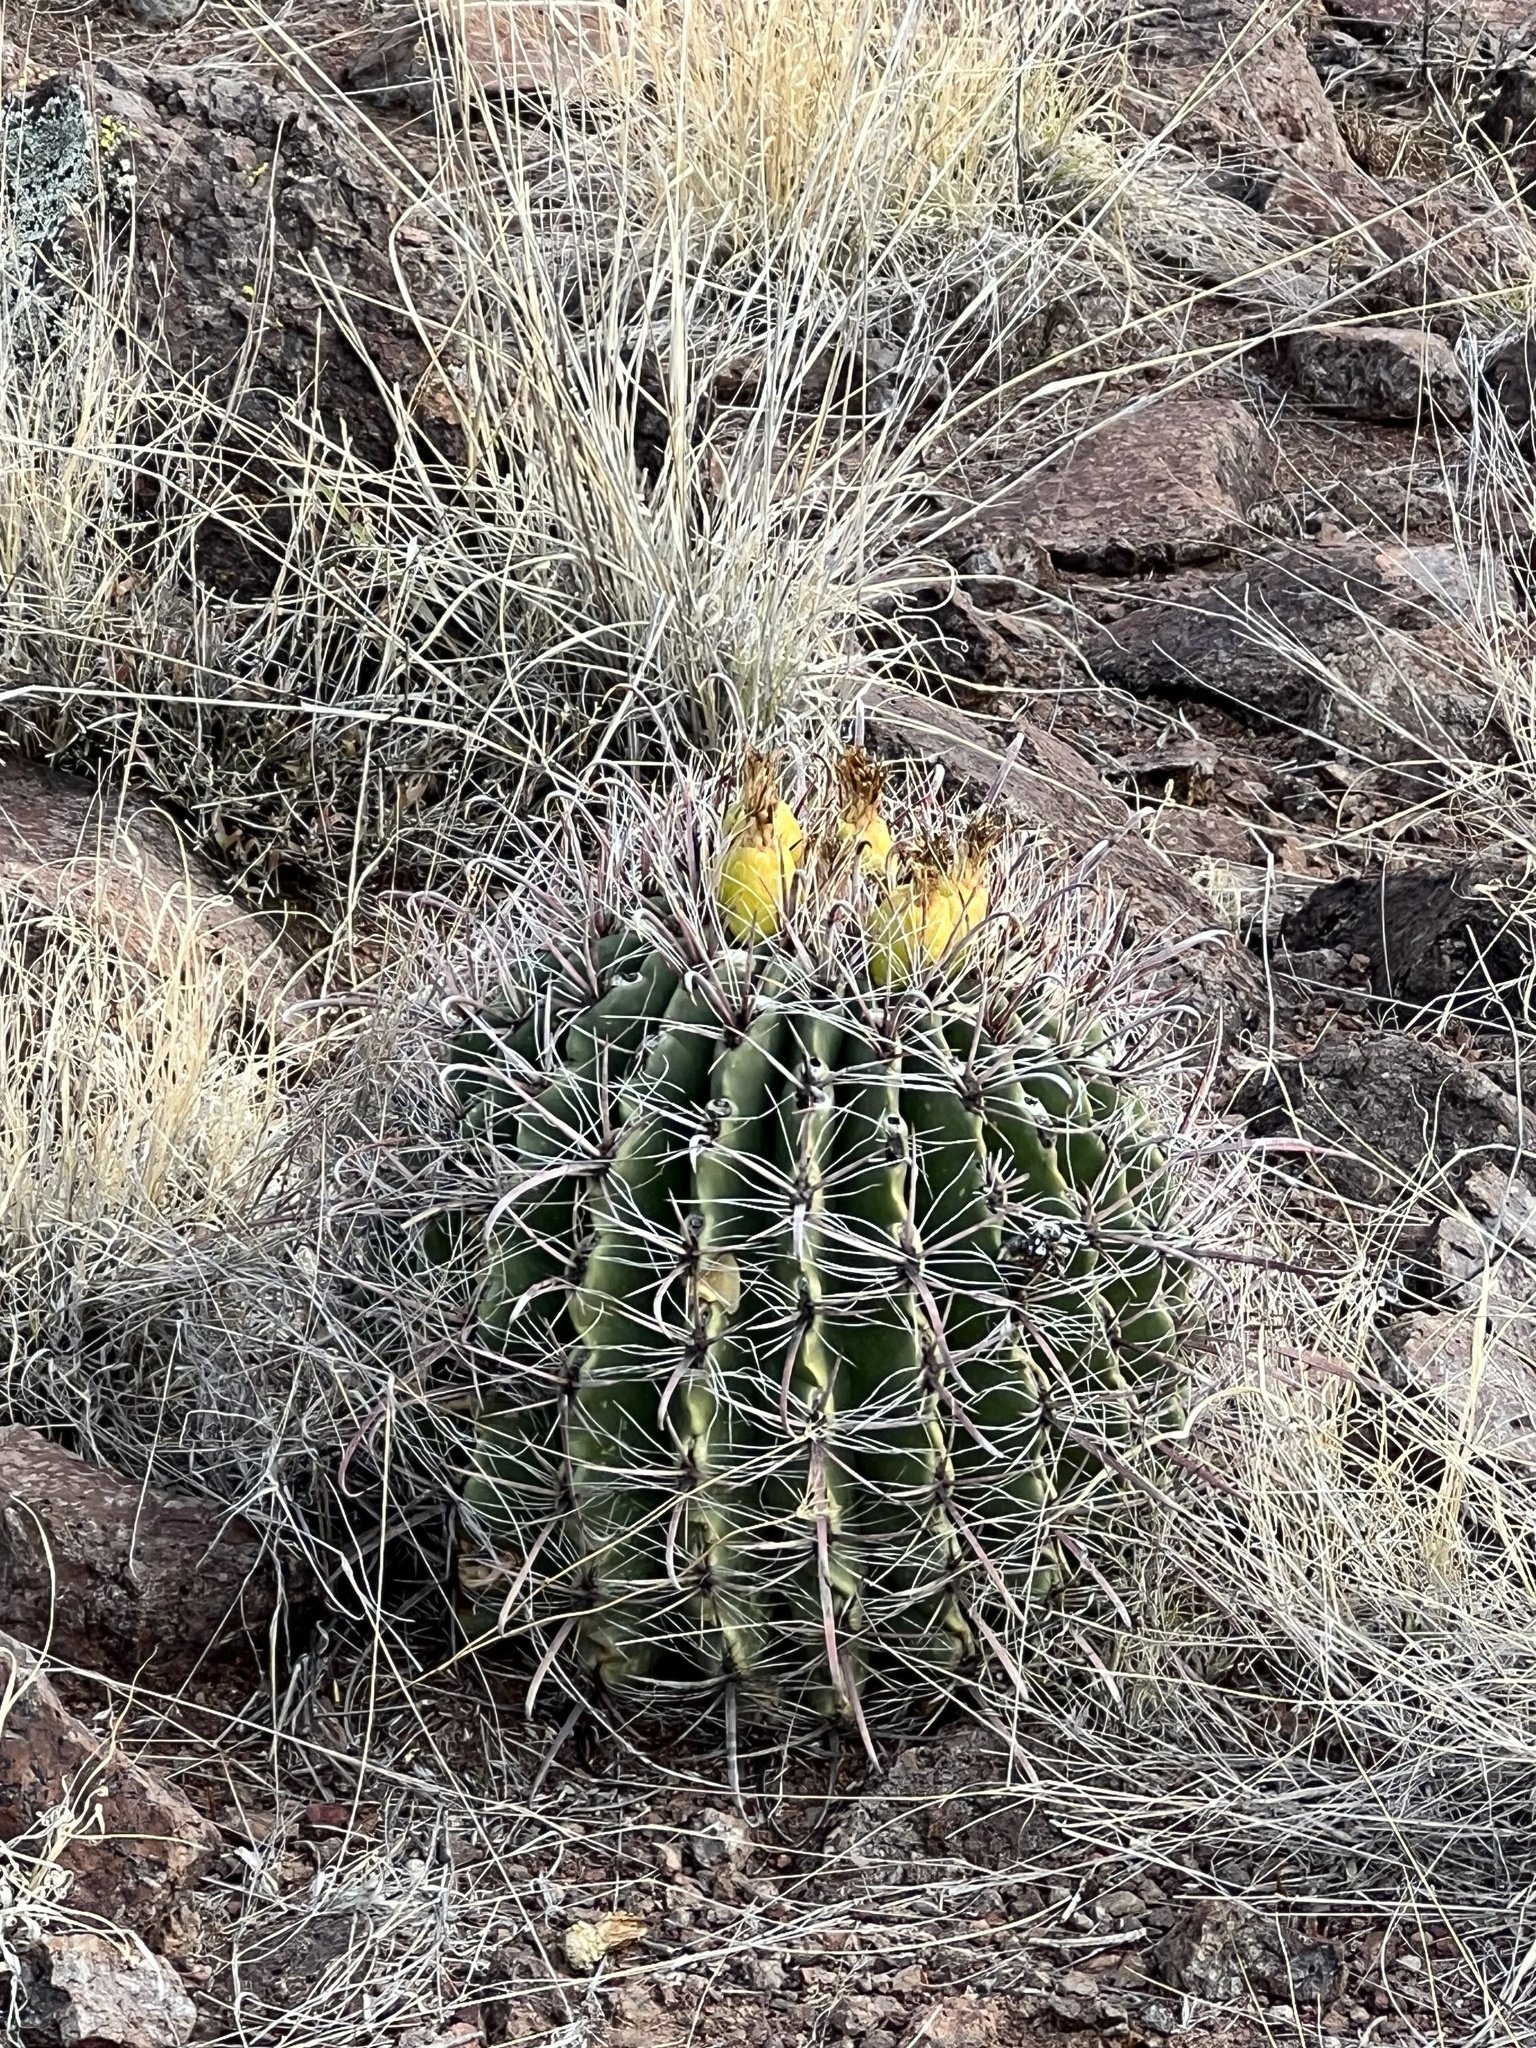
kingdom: Plantae
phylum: Tracheophyta
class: Magnoliopsida
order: Caryophyllales
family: Cactaceae
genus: Ferocactus
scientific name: Ferocactus wislizeni
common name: Candy barrel cactus
